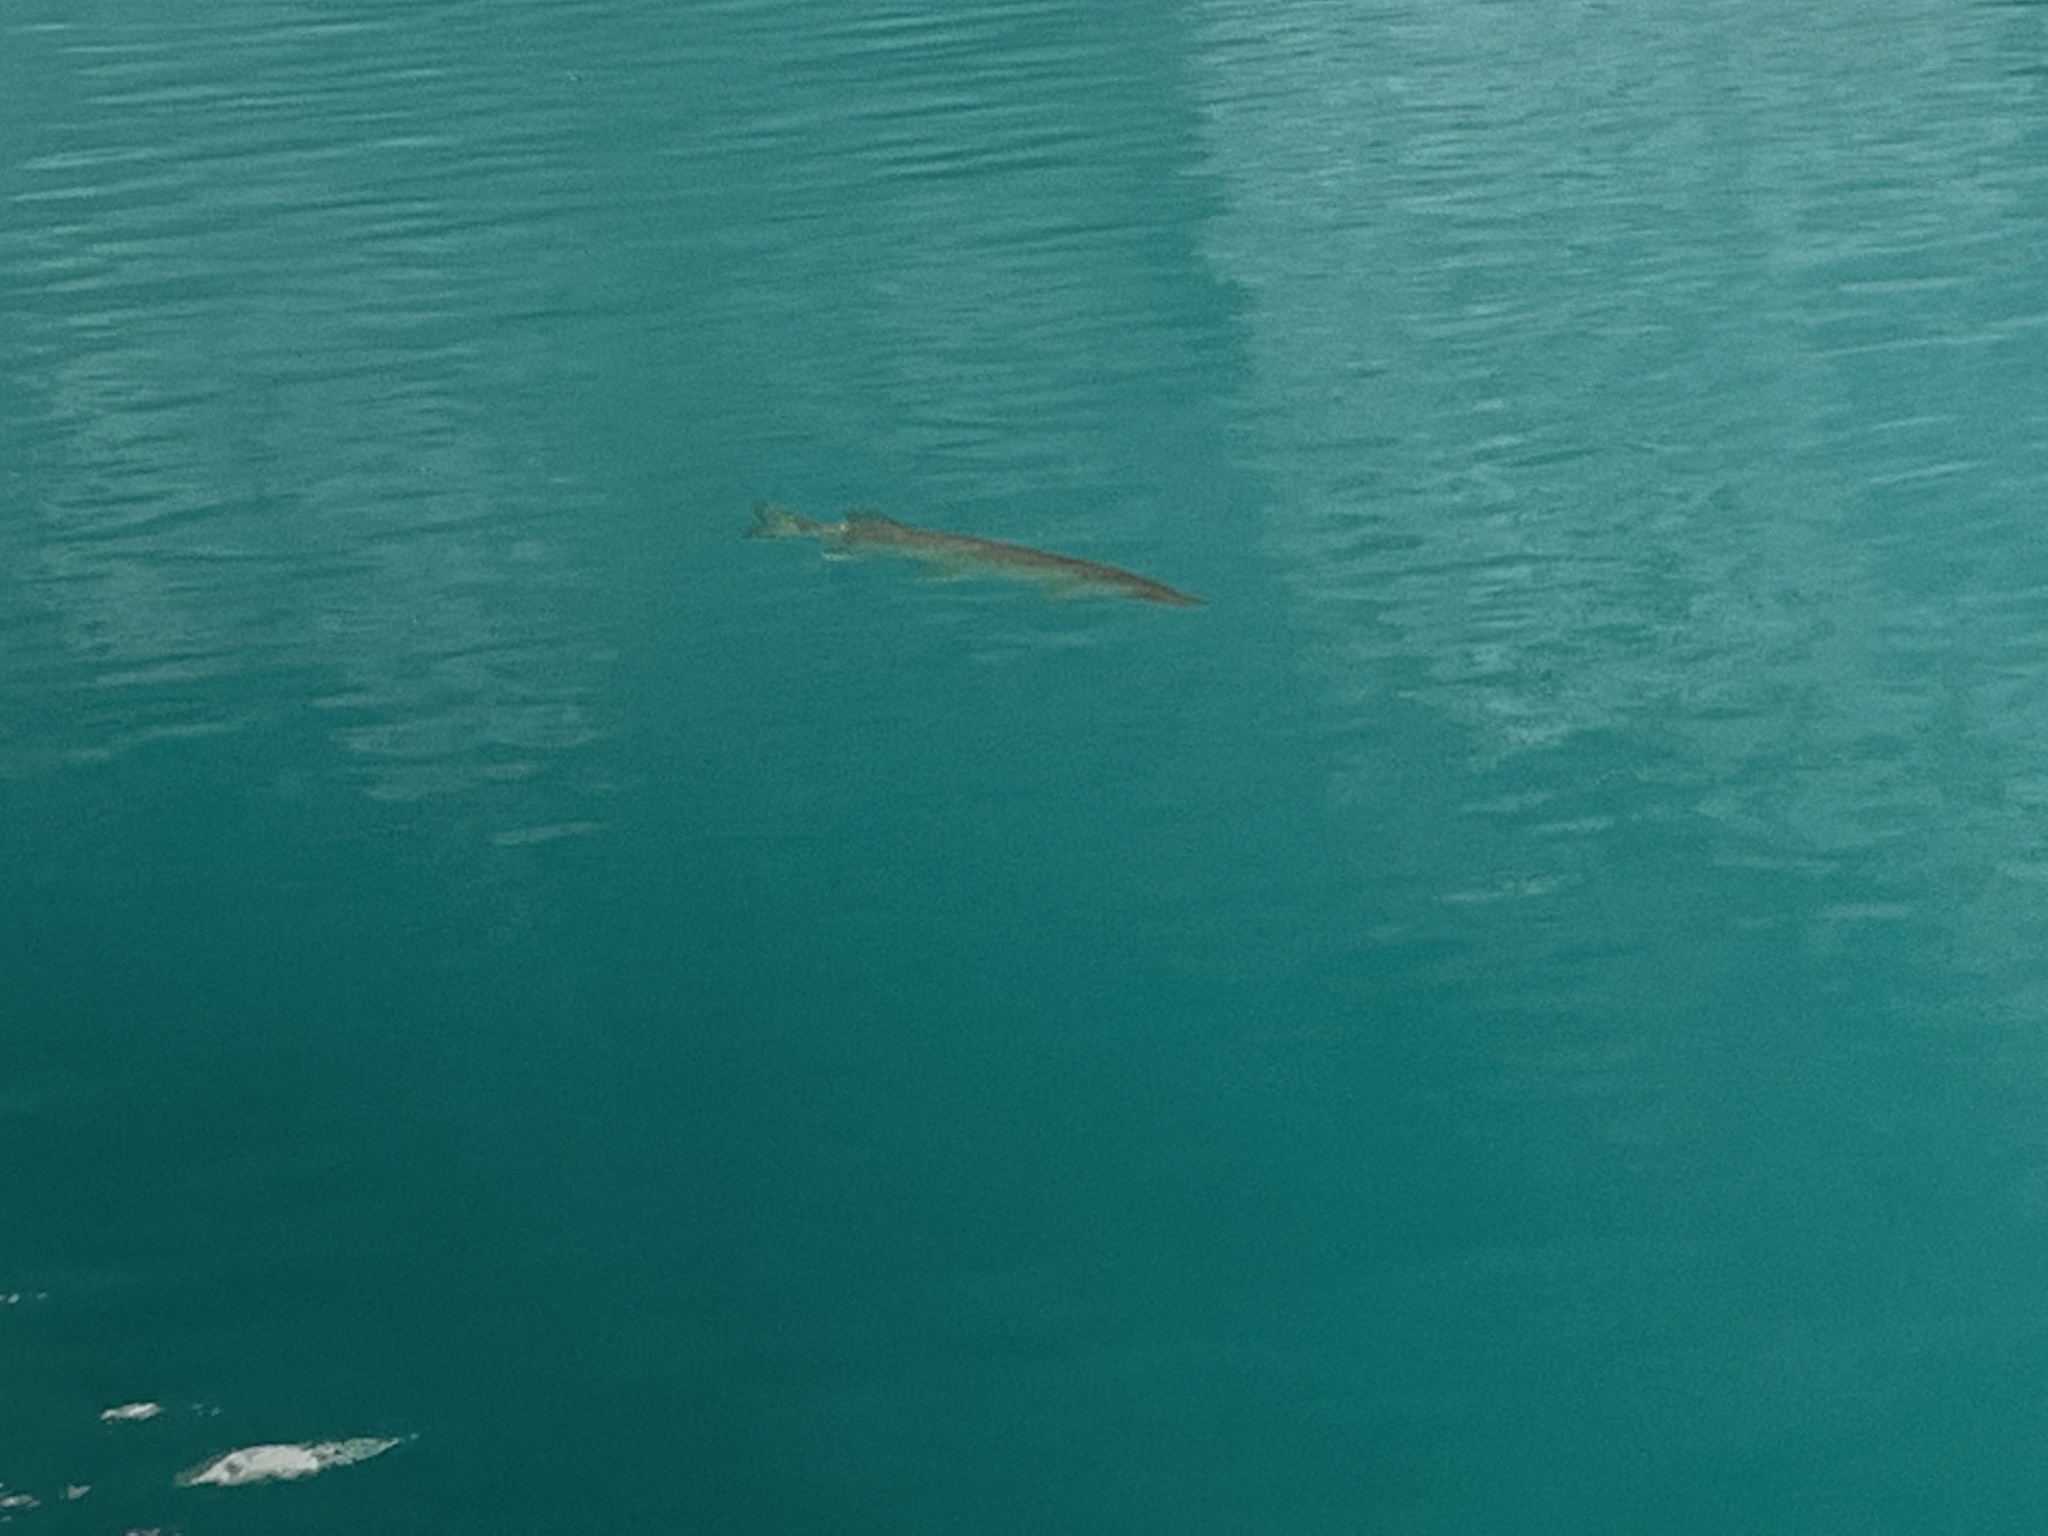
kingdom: Animalia
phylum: Chordata
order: Esociformes
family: Esocidae
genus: Esox
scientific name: Esox lucius
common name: Northern pike
